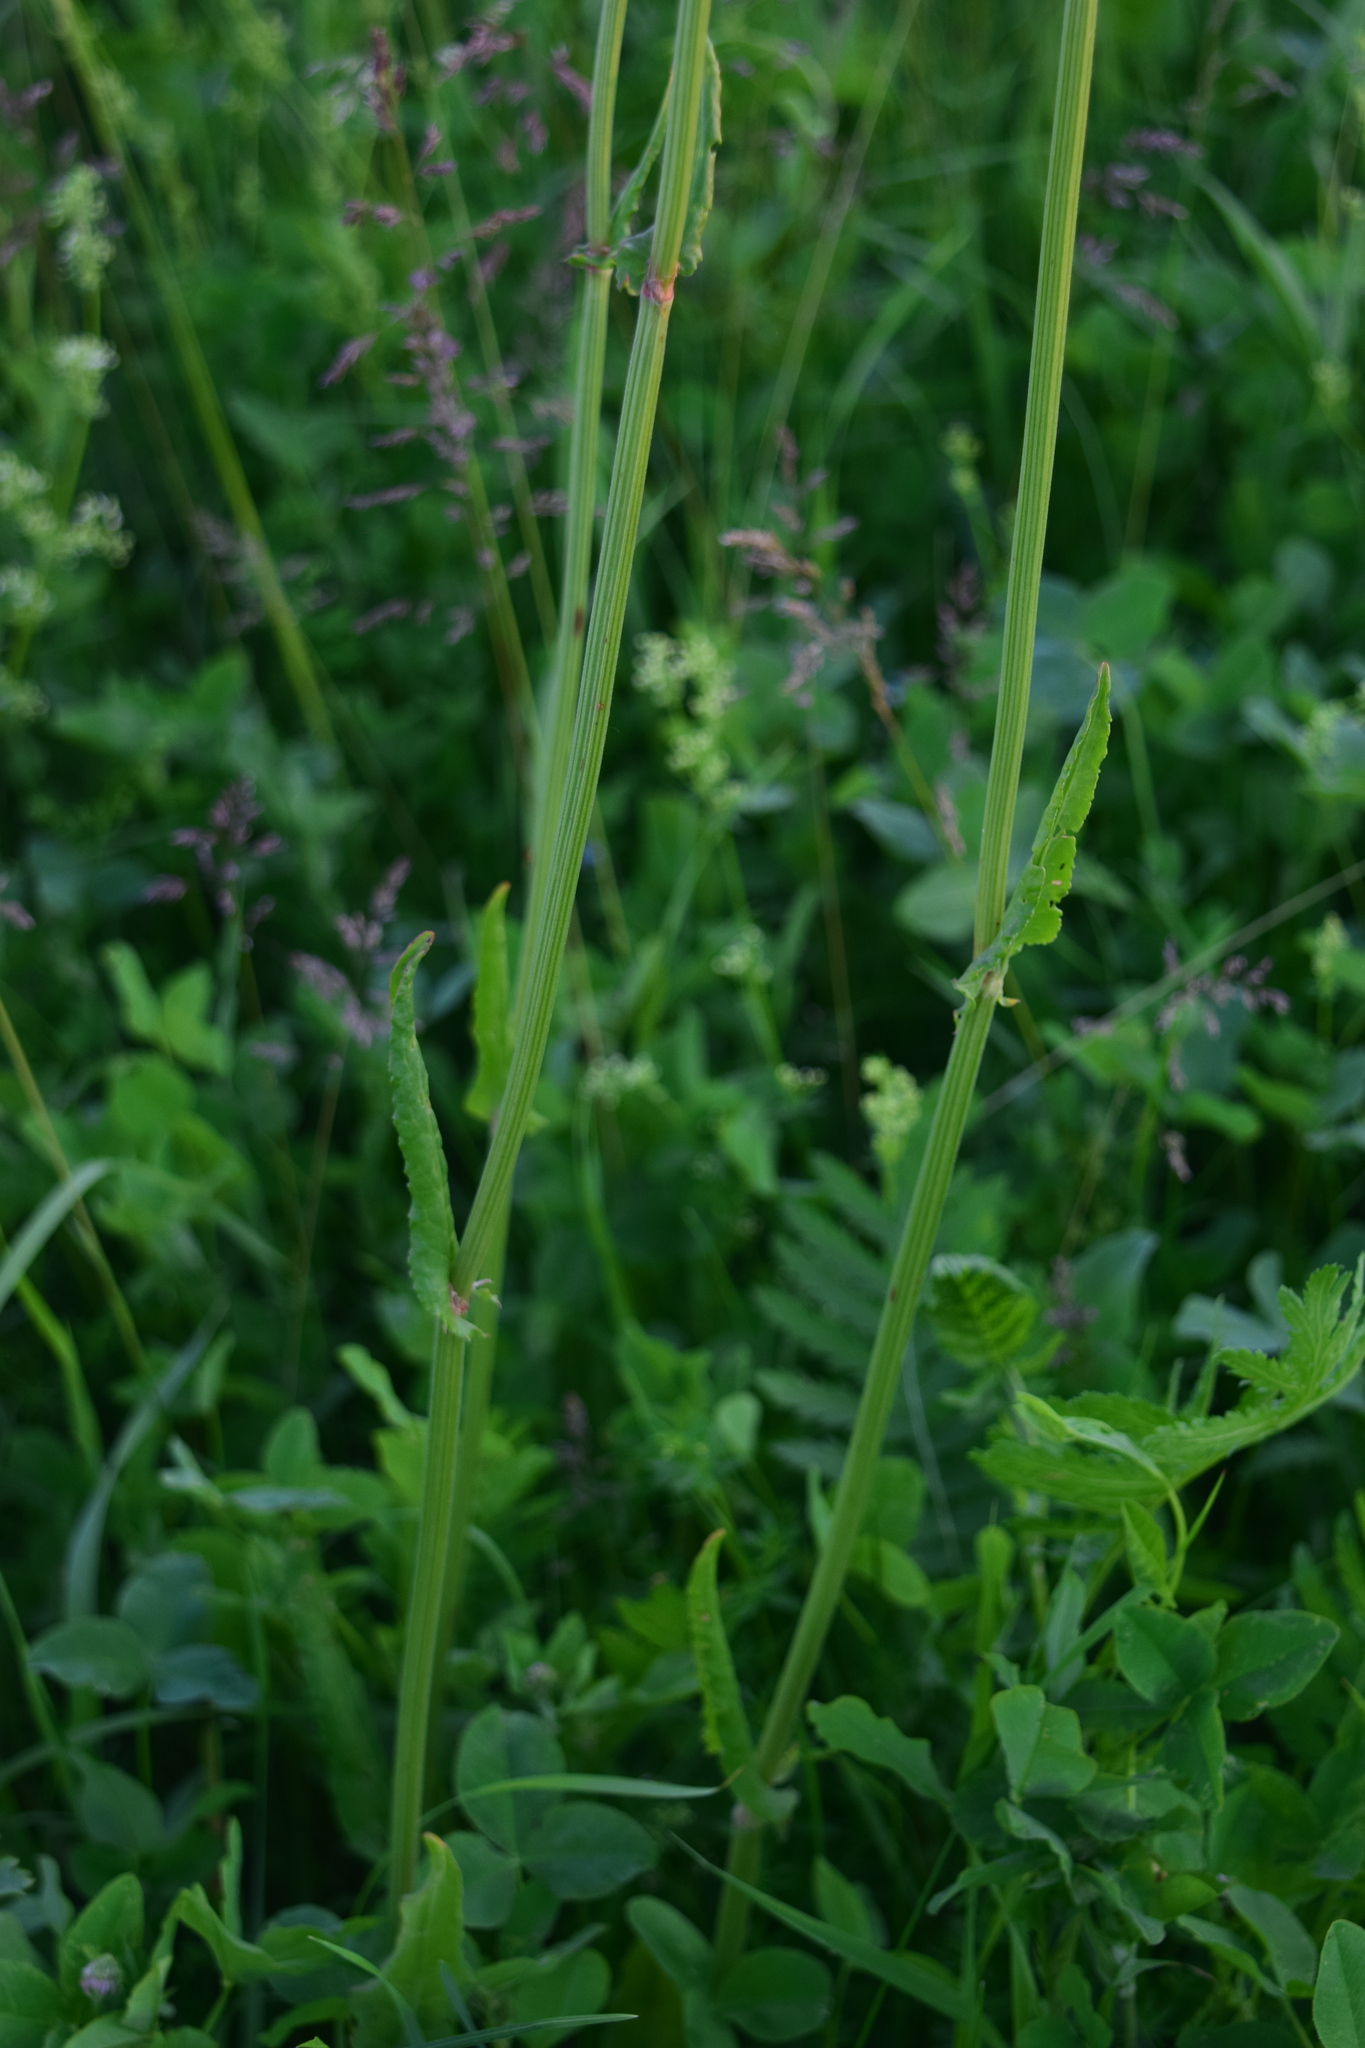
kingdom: Plantae
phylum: Tracheophyta
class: Magnoliopsida
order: Caryophyllales
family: Polygonaceae
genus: Rumex
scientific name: Rumex acetosa
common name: Garden sorrel
